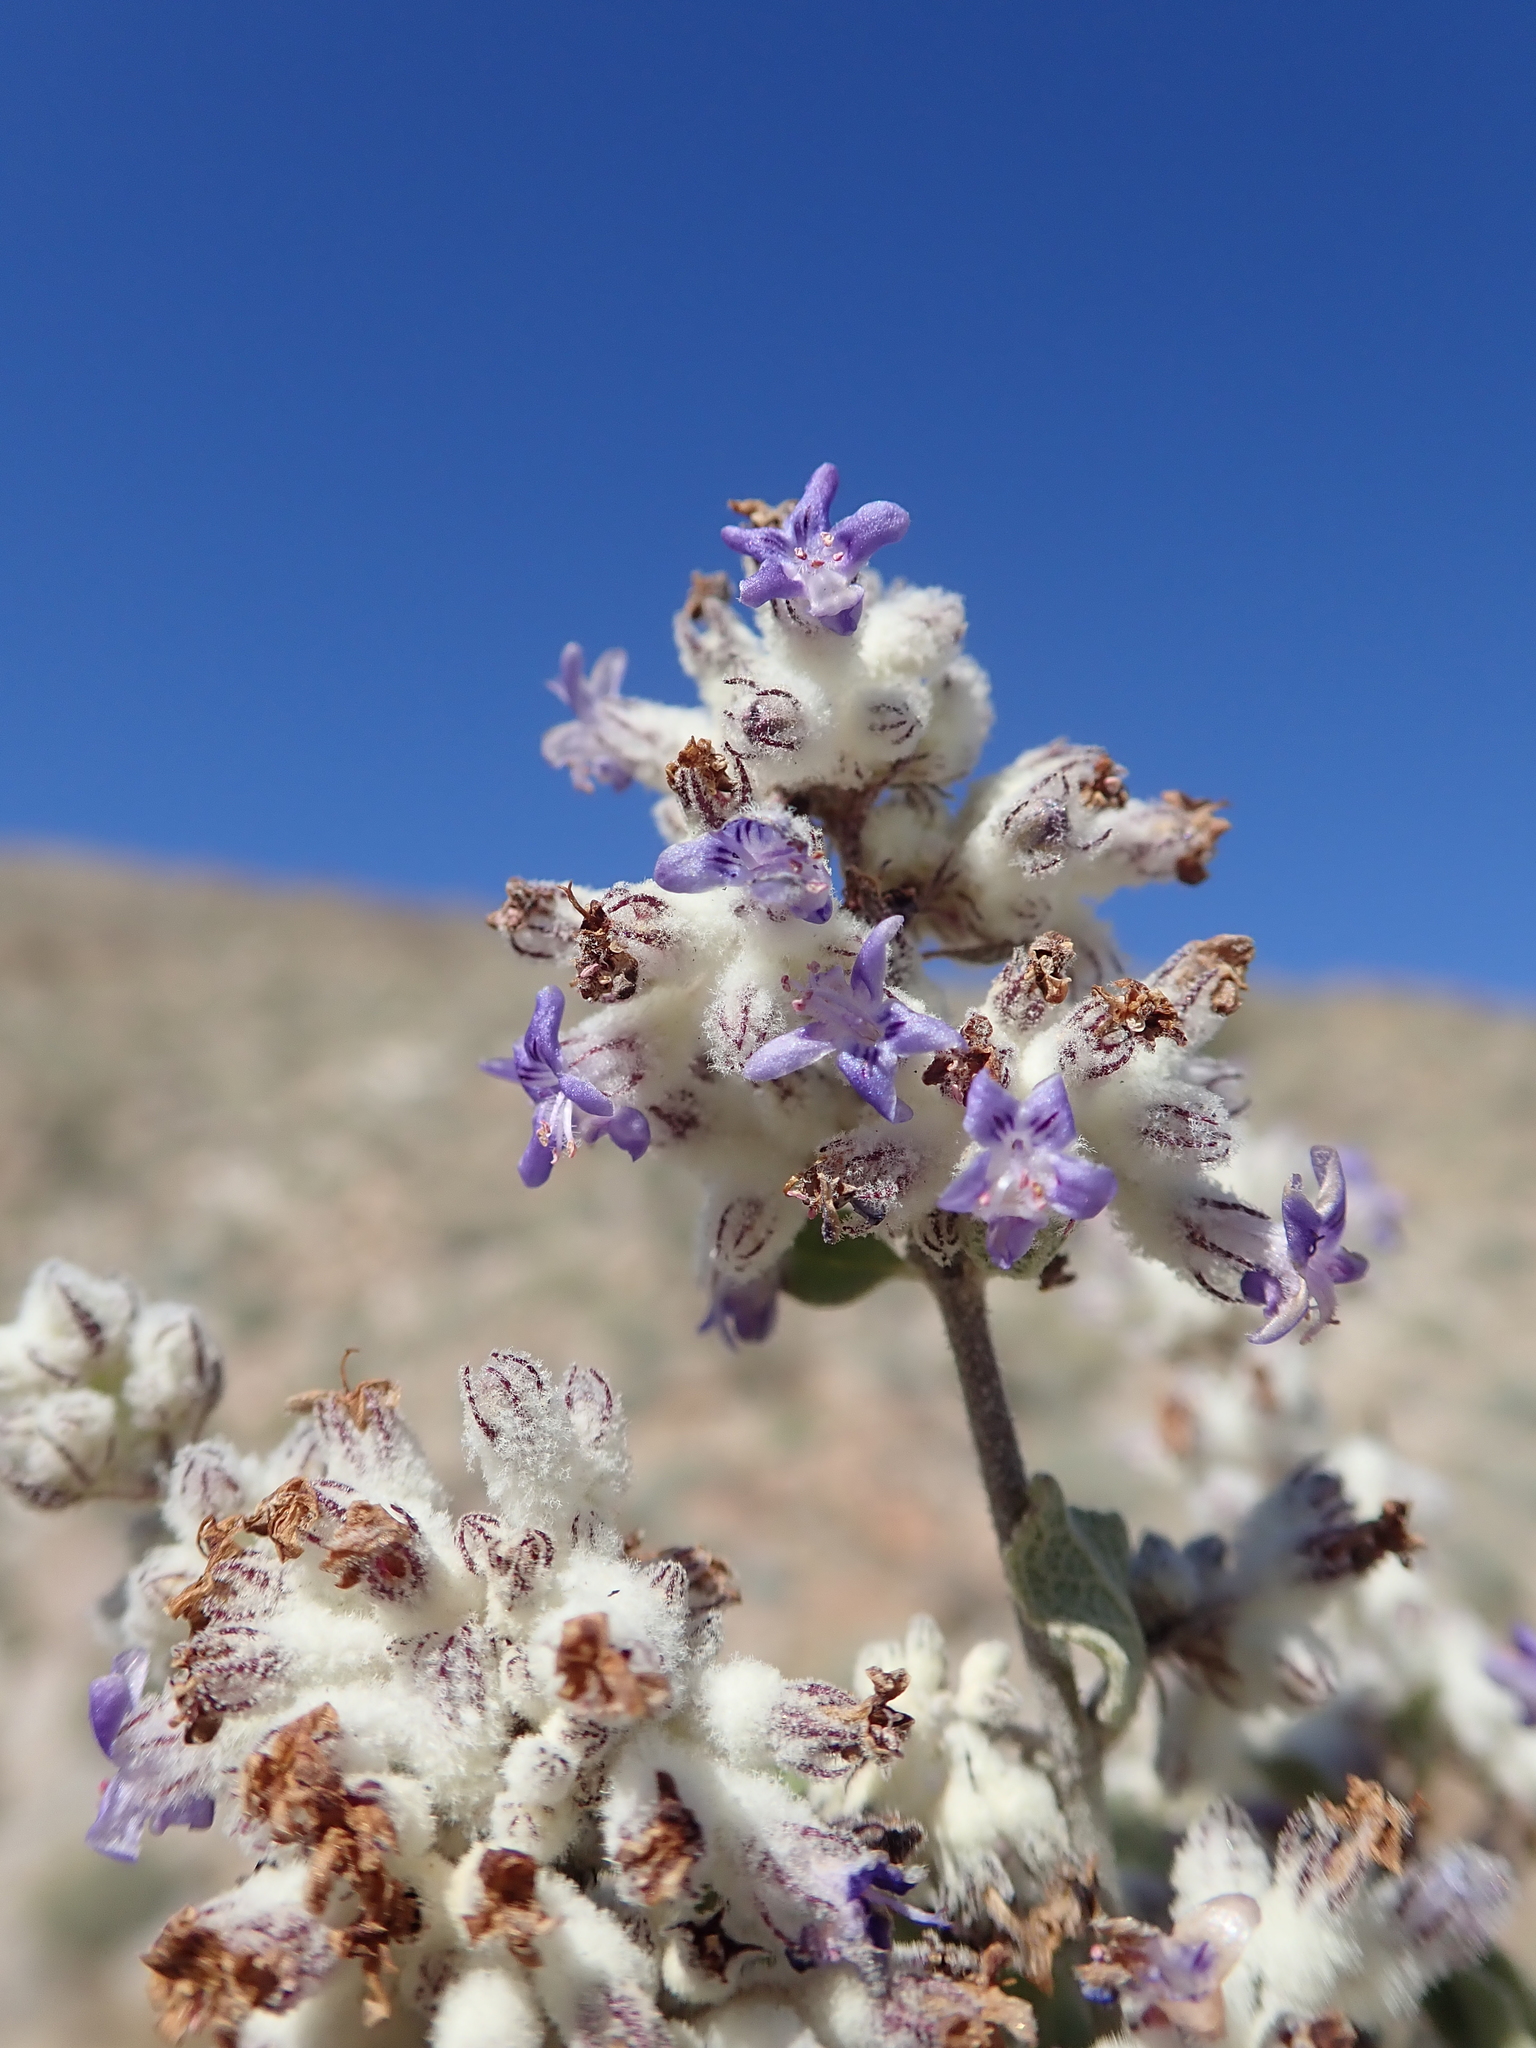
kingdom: Plantae
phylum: Tracheophyta
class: Magnoliopsida
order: Lamiales
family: Lamiaceae
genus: Condea
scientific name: Condea emoryi
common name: Chia
